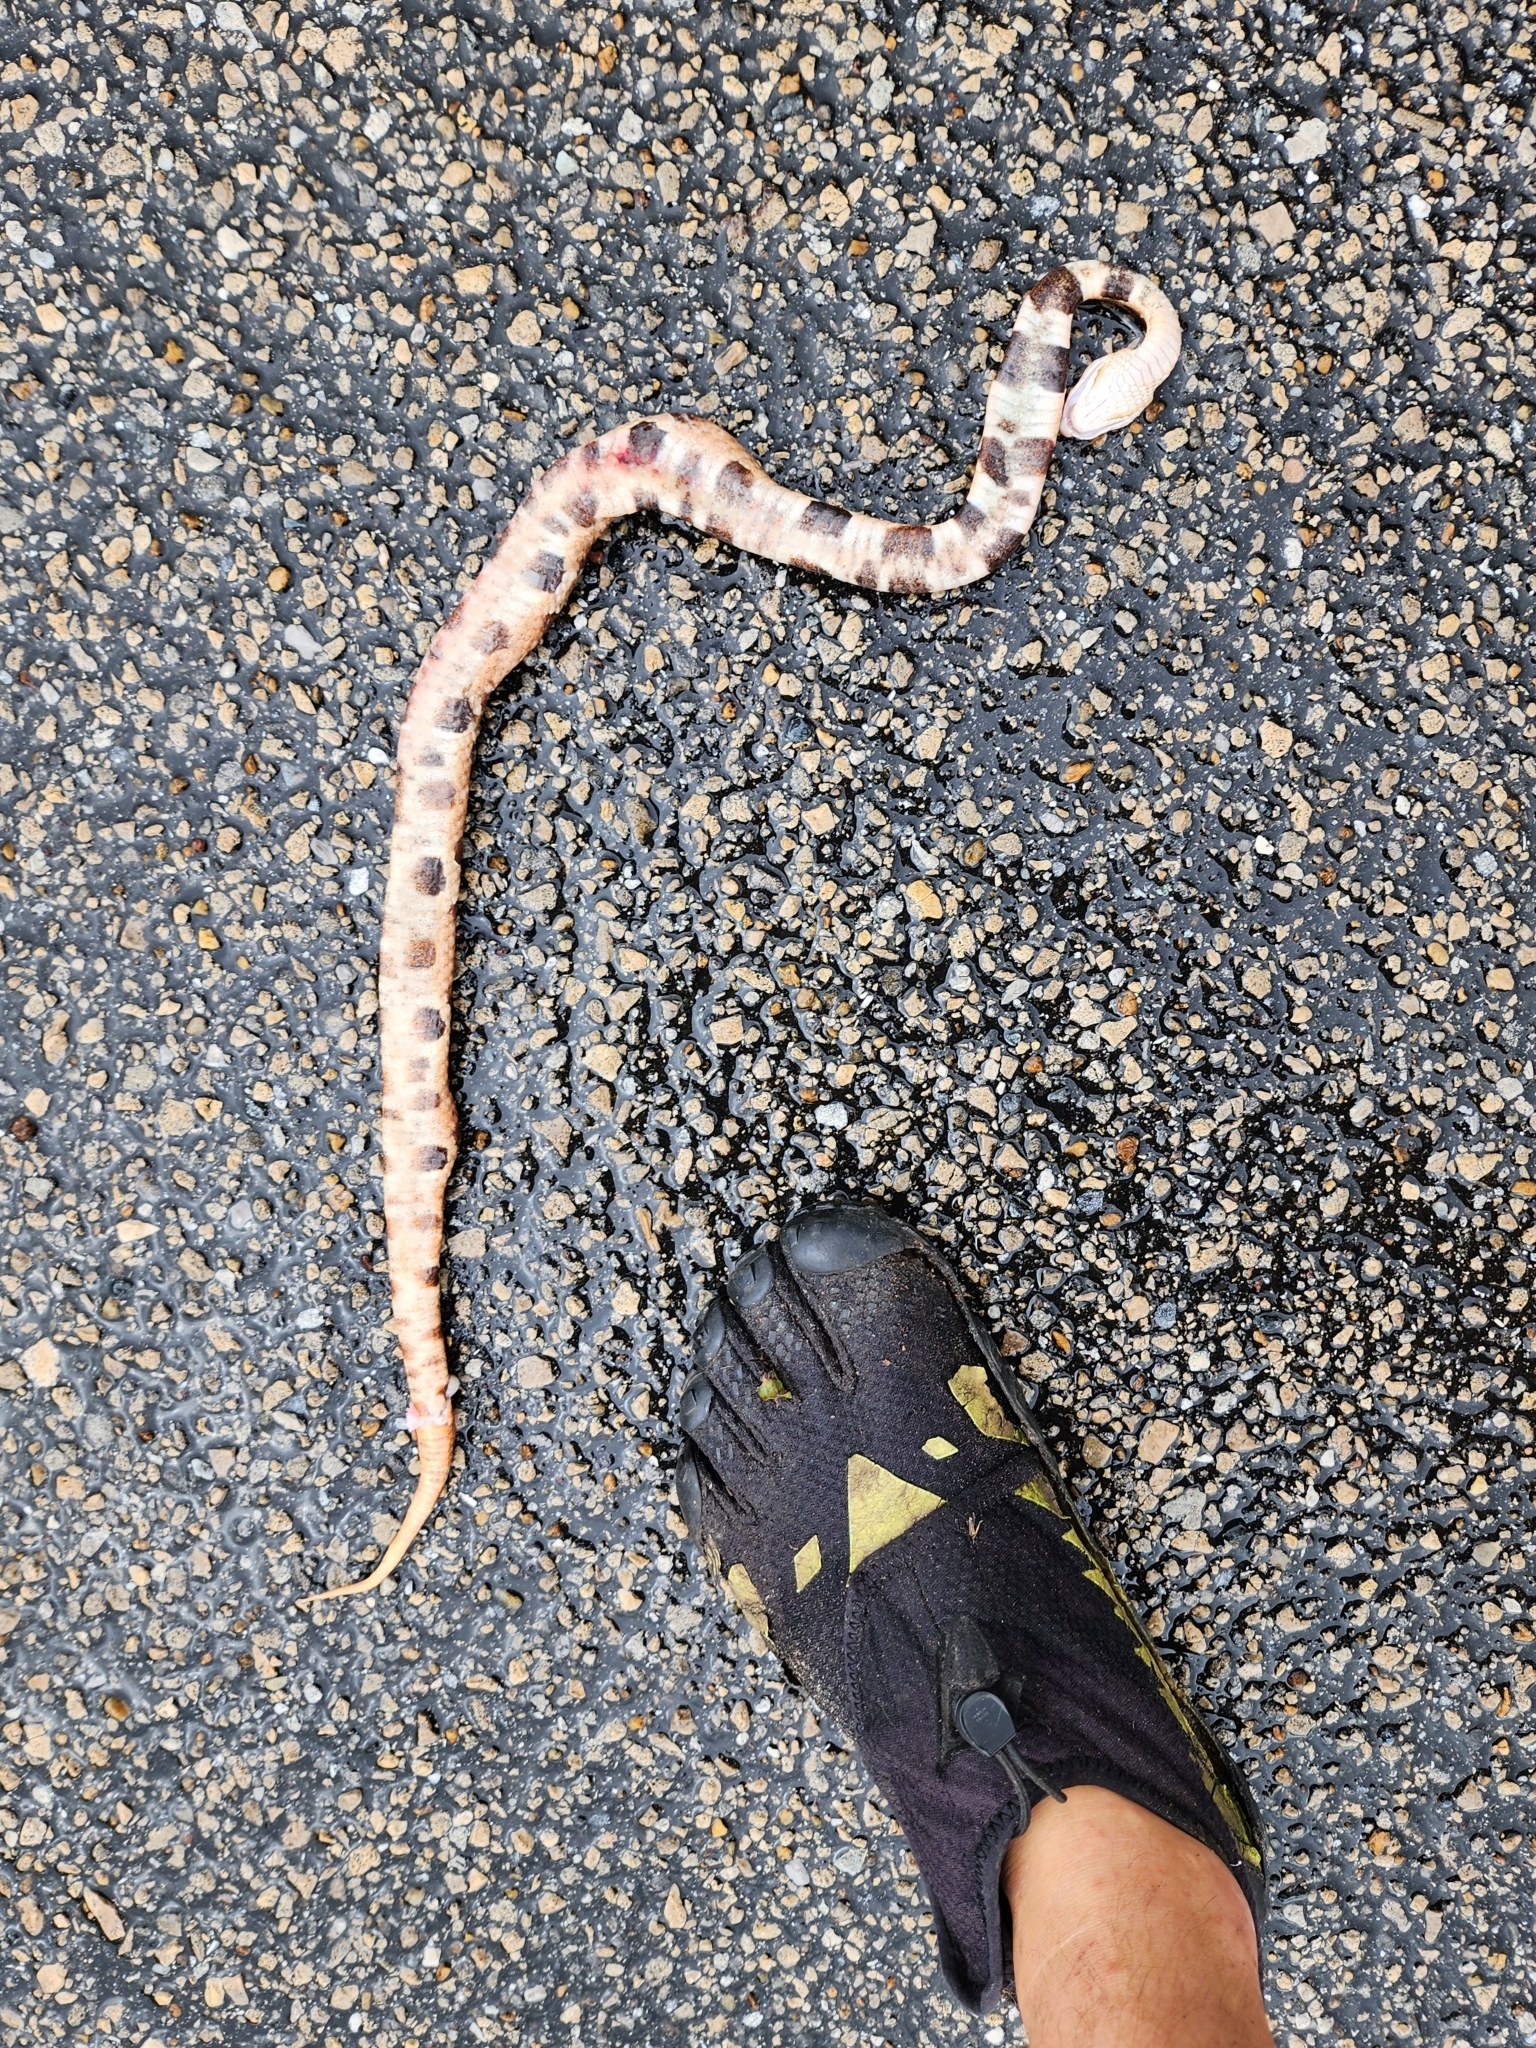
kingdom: Animalia
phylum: Chordata
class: Squamata
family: Viperidae
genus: Agkistrodon
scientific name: Agkistrodon contortrix
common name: Northern copperhead
